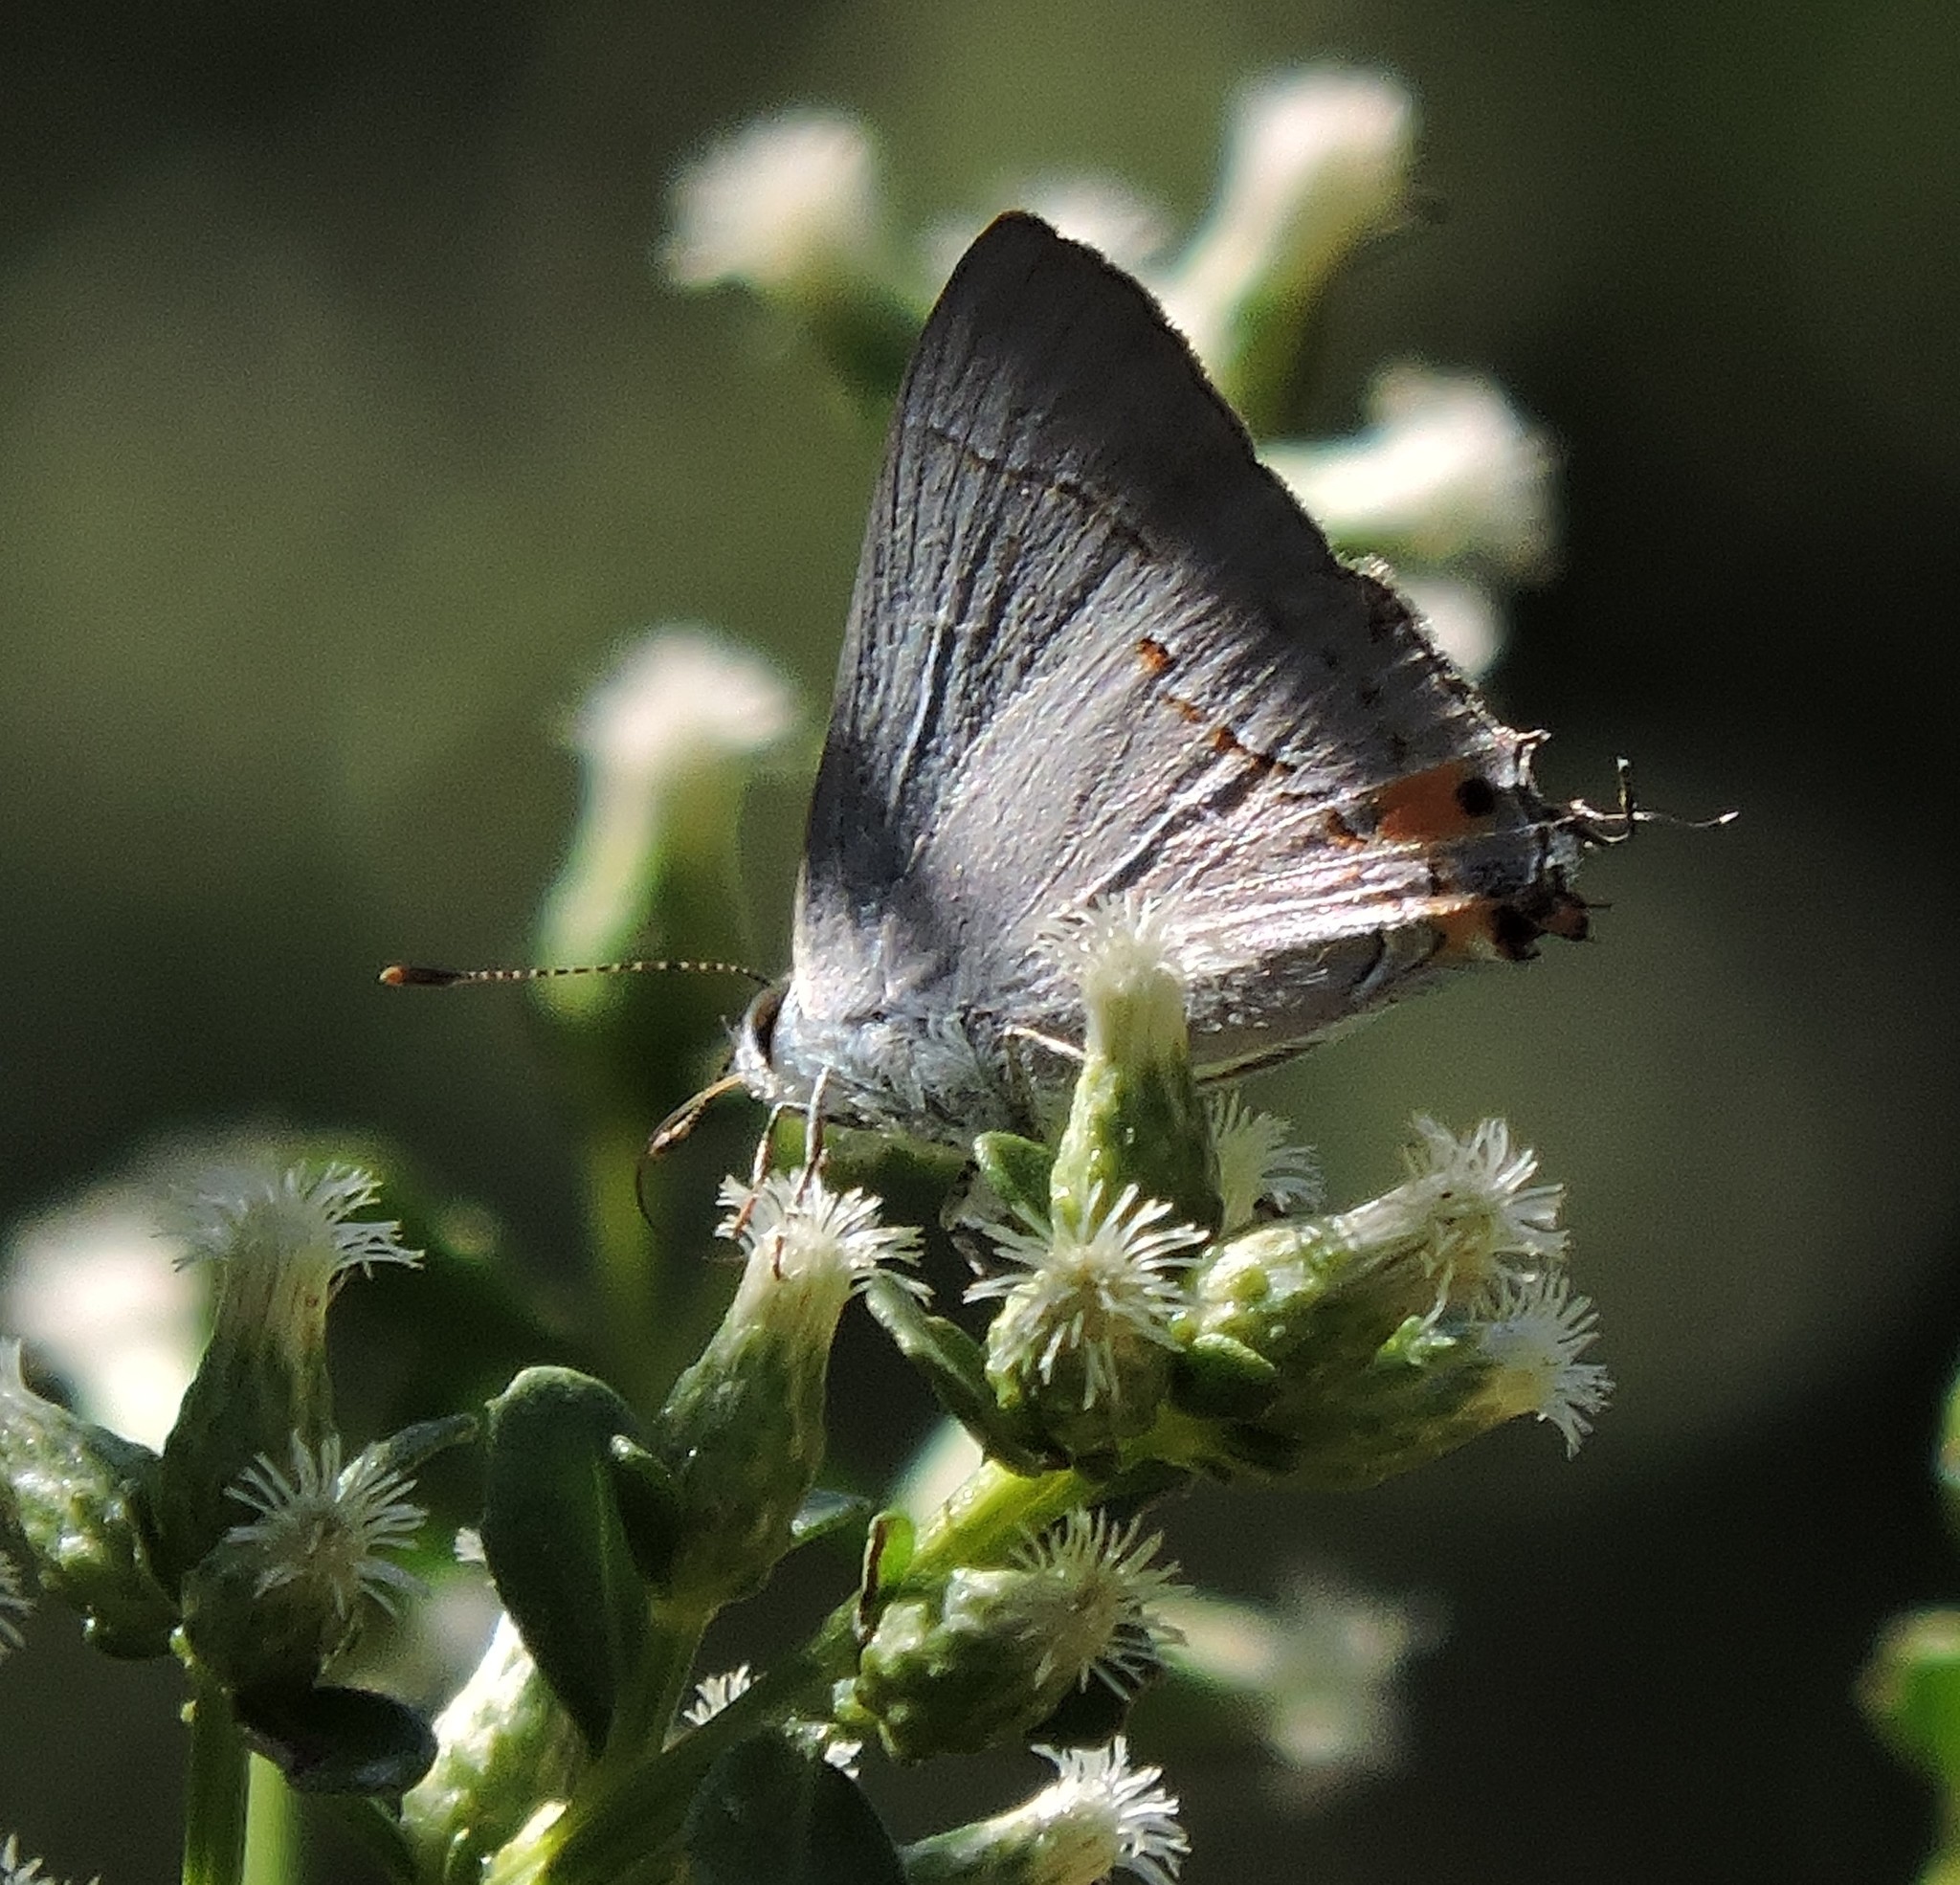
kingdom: Animalia
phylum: Arthropoda
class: Insecta
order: Lepidoptera
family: Lycaenidae
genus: Strymon
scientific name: Strymon melinus
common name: Gray hairstreak
